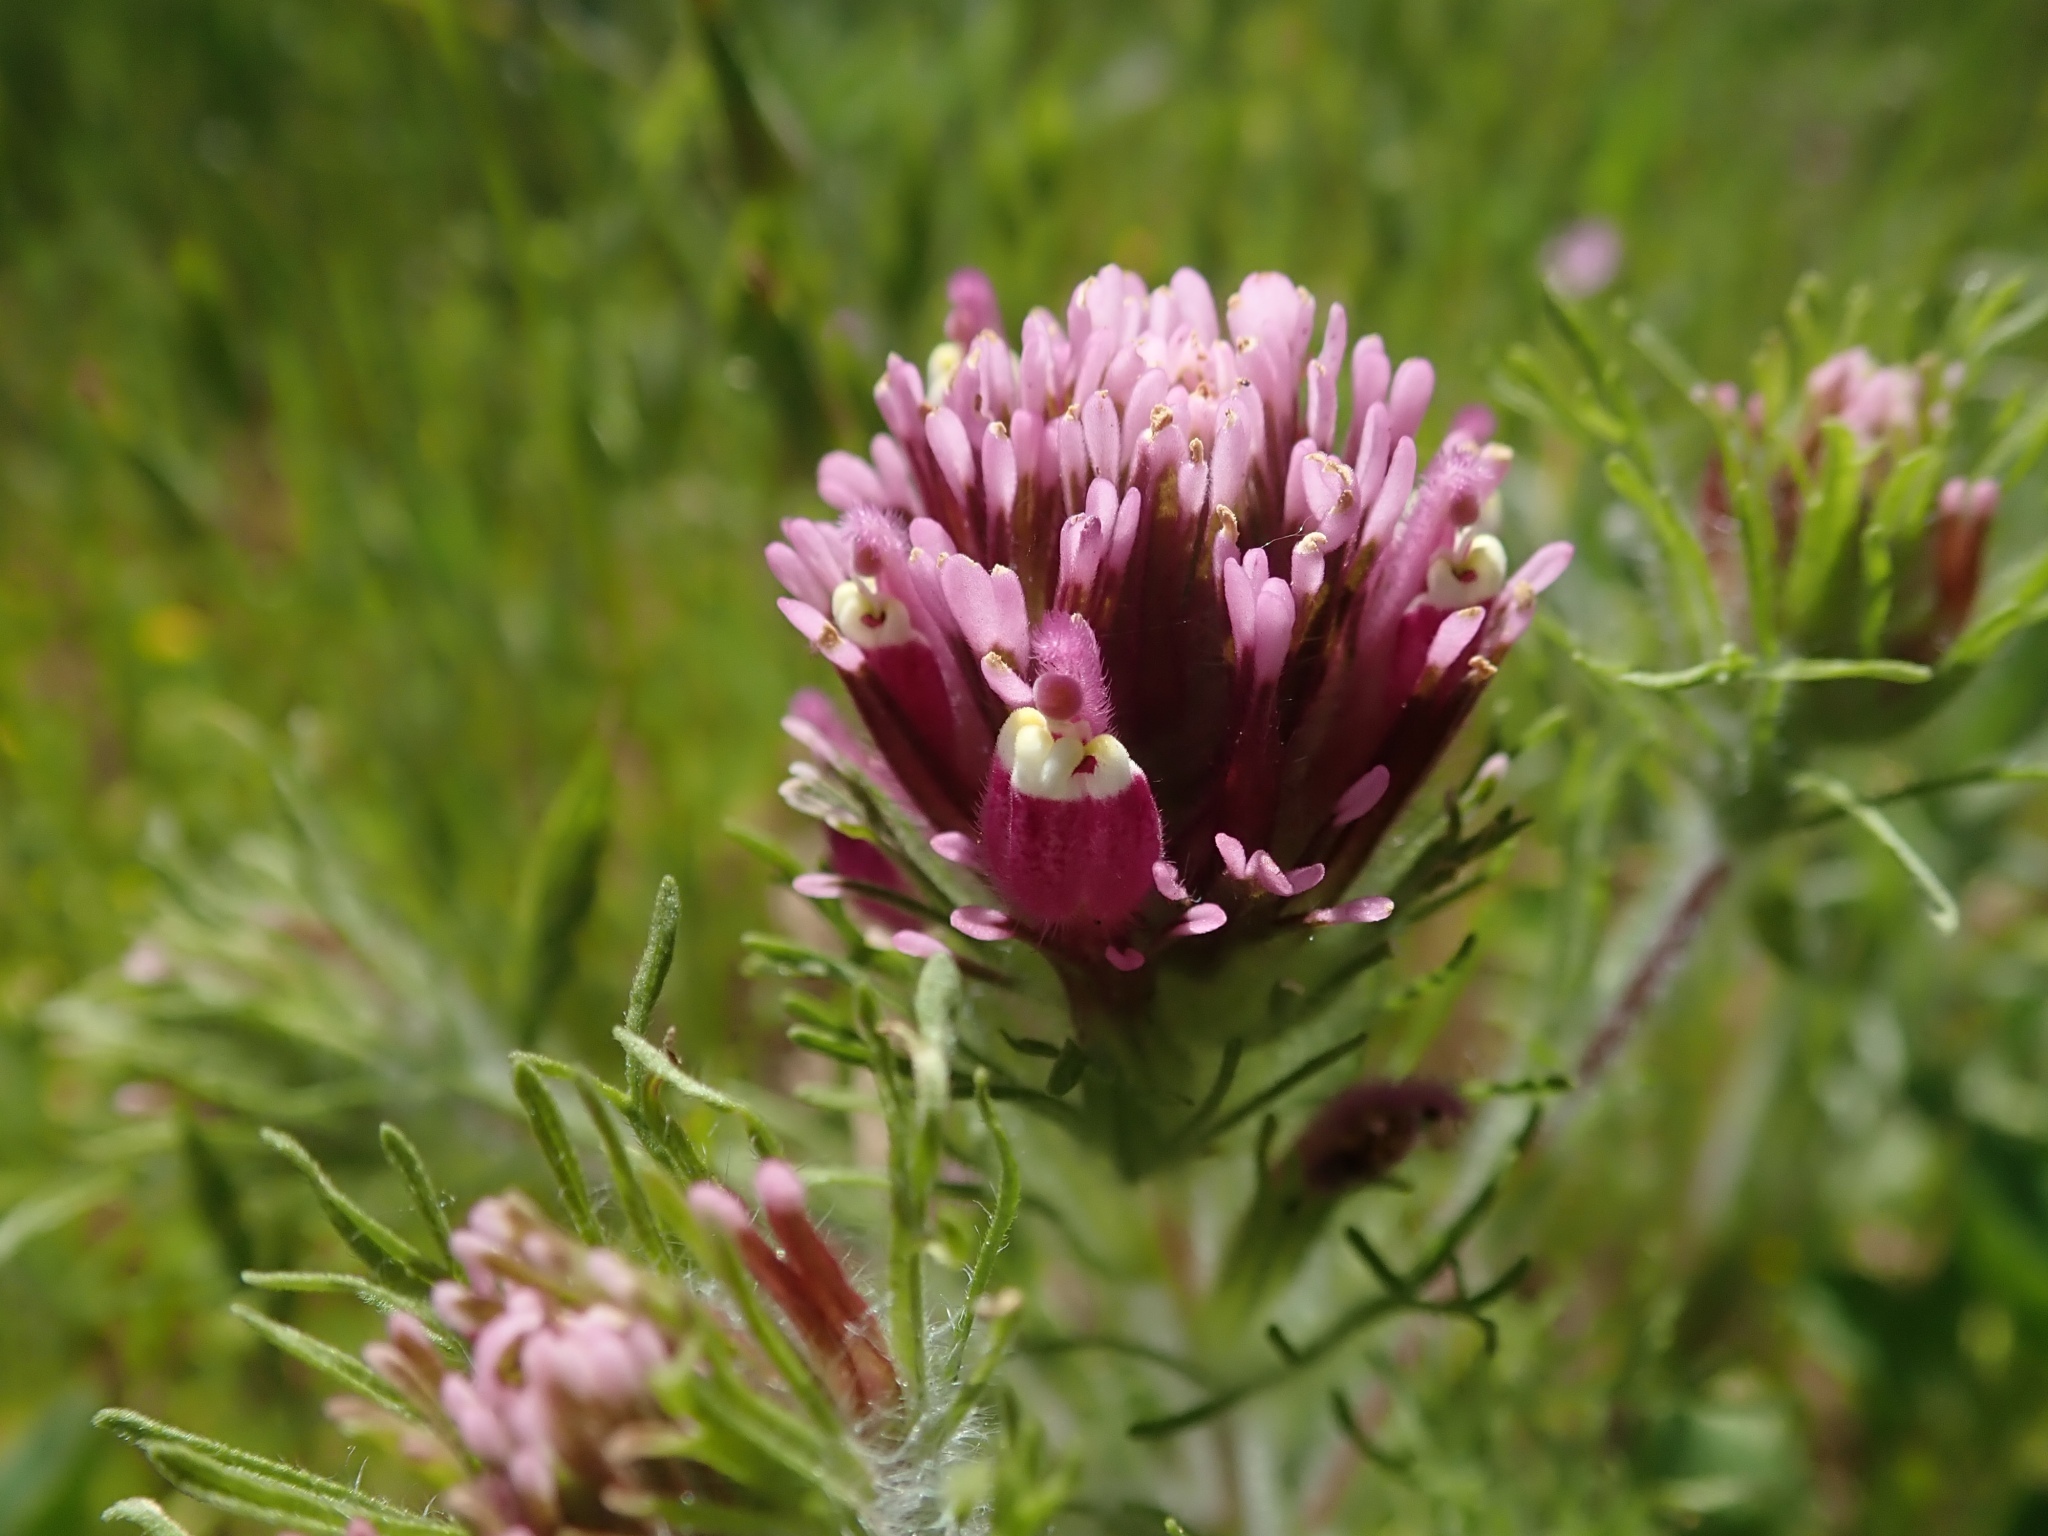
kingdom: Plantae
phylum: Tracheophyta
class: Magnoliopsida
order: Lamiales
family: Orobanchaceae
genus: Castilleja
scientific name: Castilleja exserta
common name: Purple owl-clover
